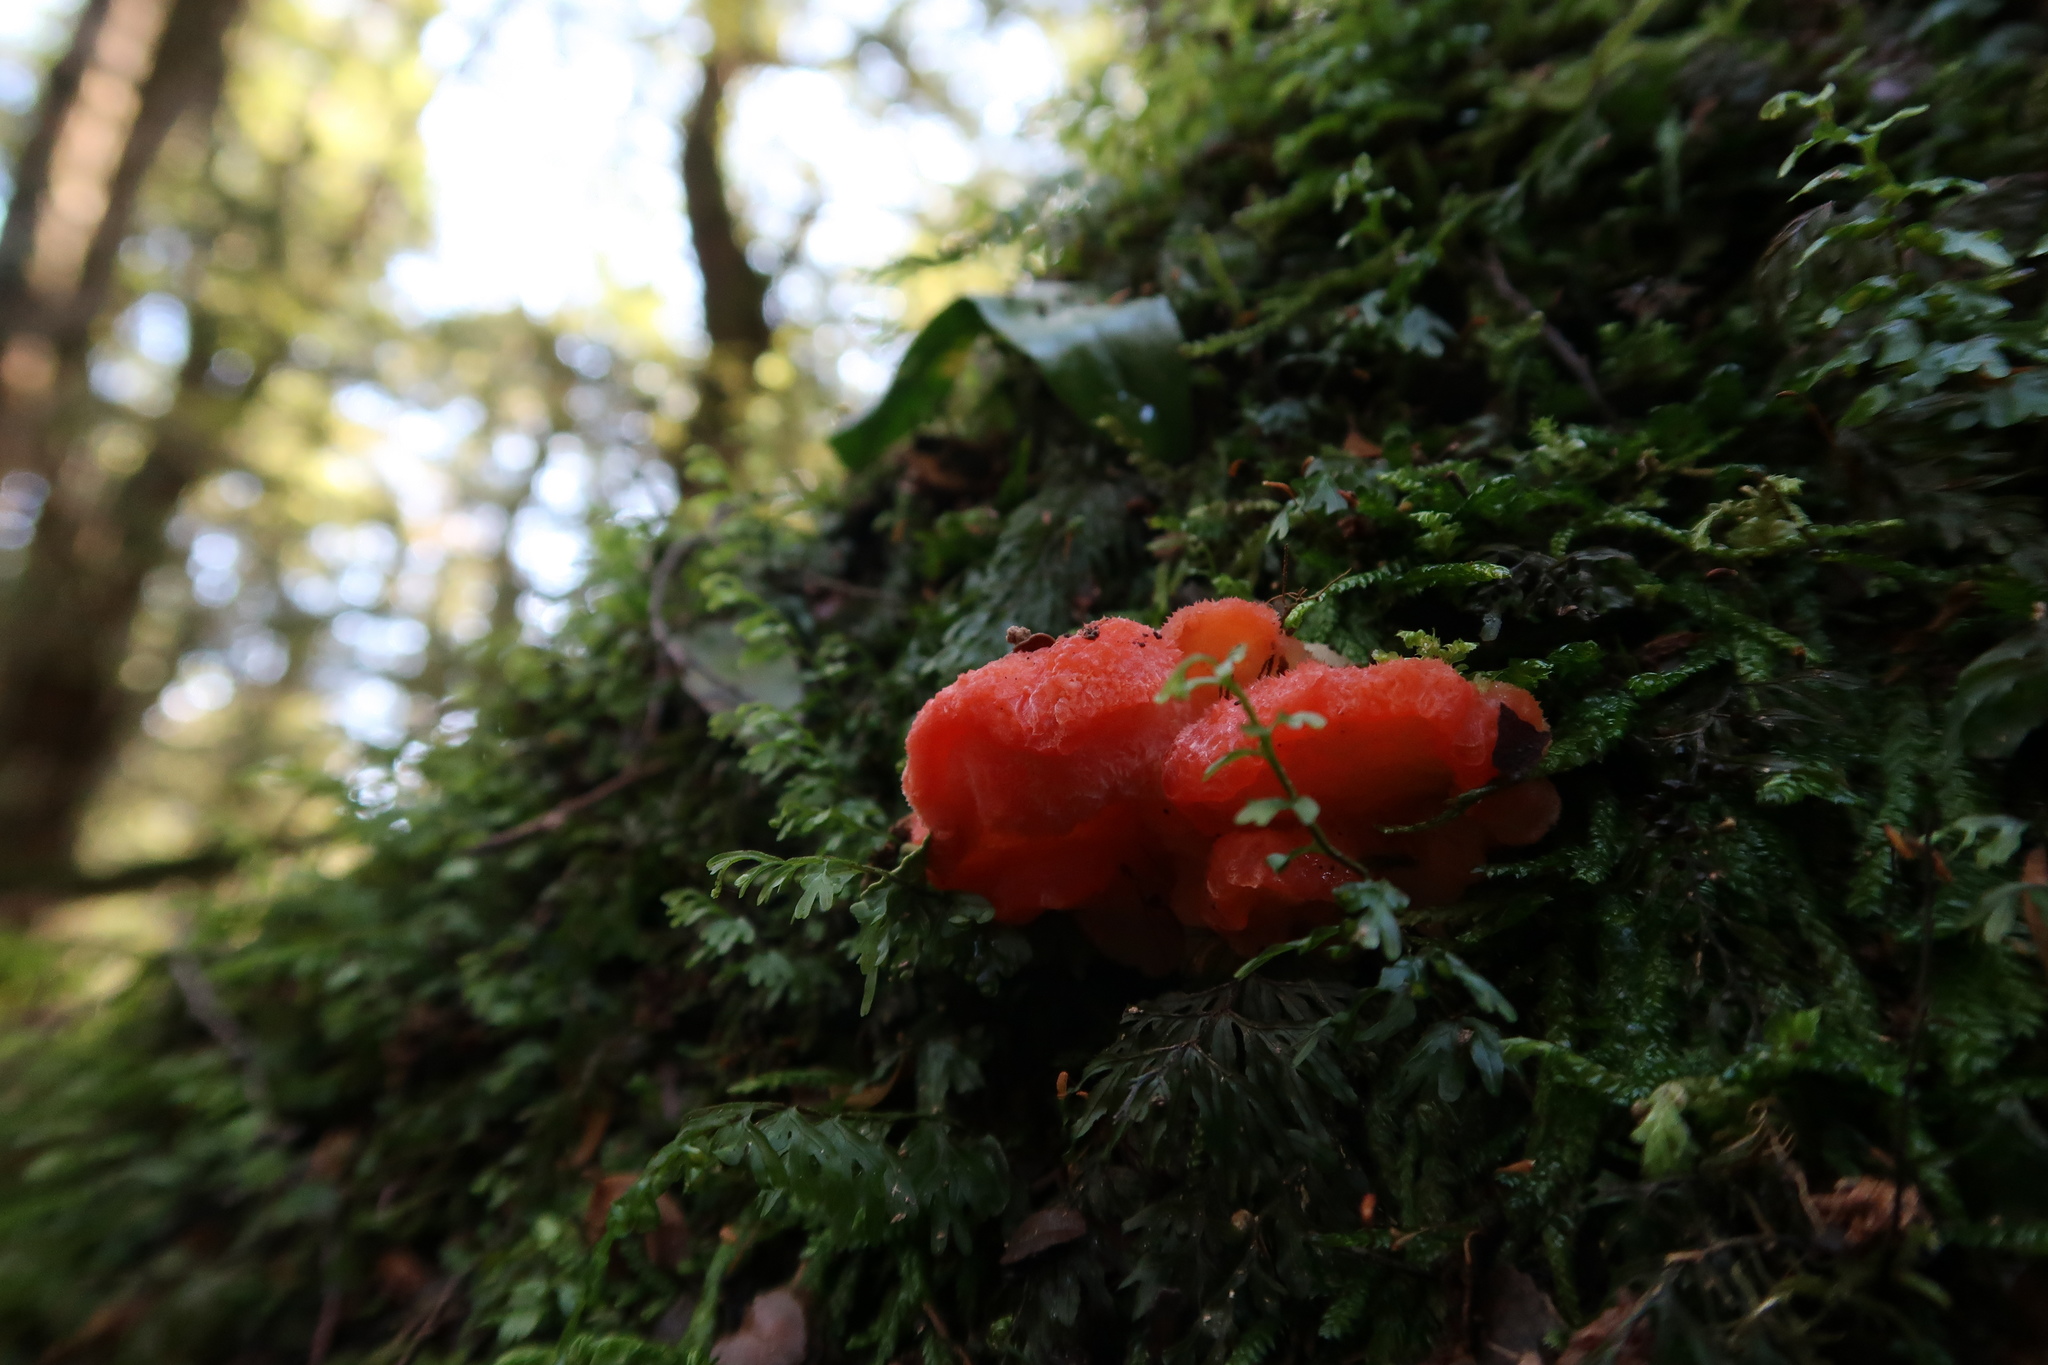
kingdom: Fungi
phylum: Basidiomycota
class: Agaricomycetes
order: Polyporales
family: Incrustoporiaceae
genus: Tyromyces
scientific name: Tyromyces pulcherrimus
